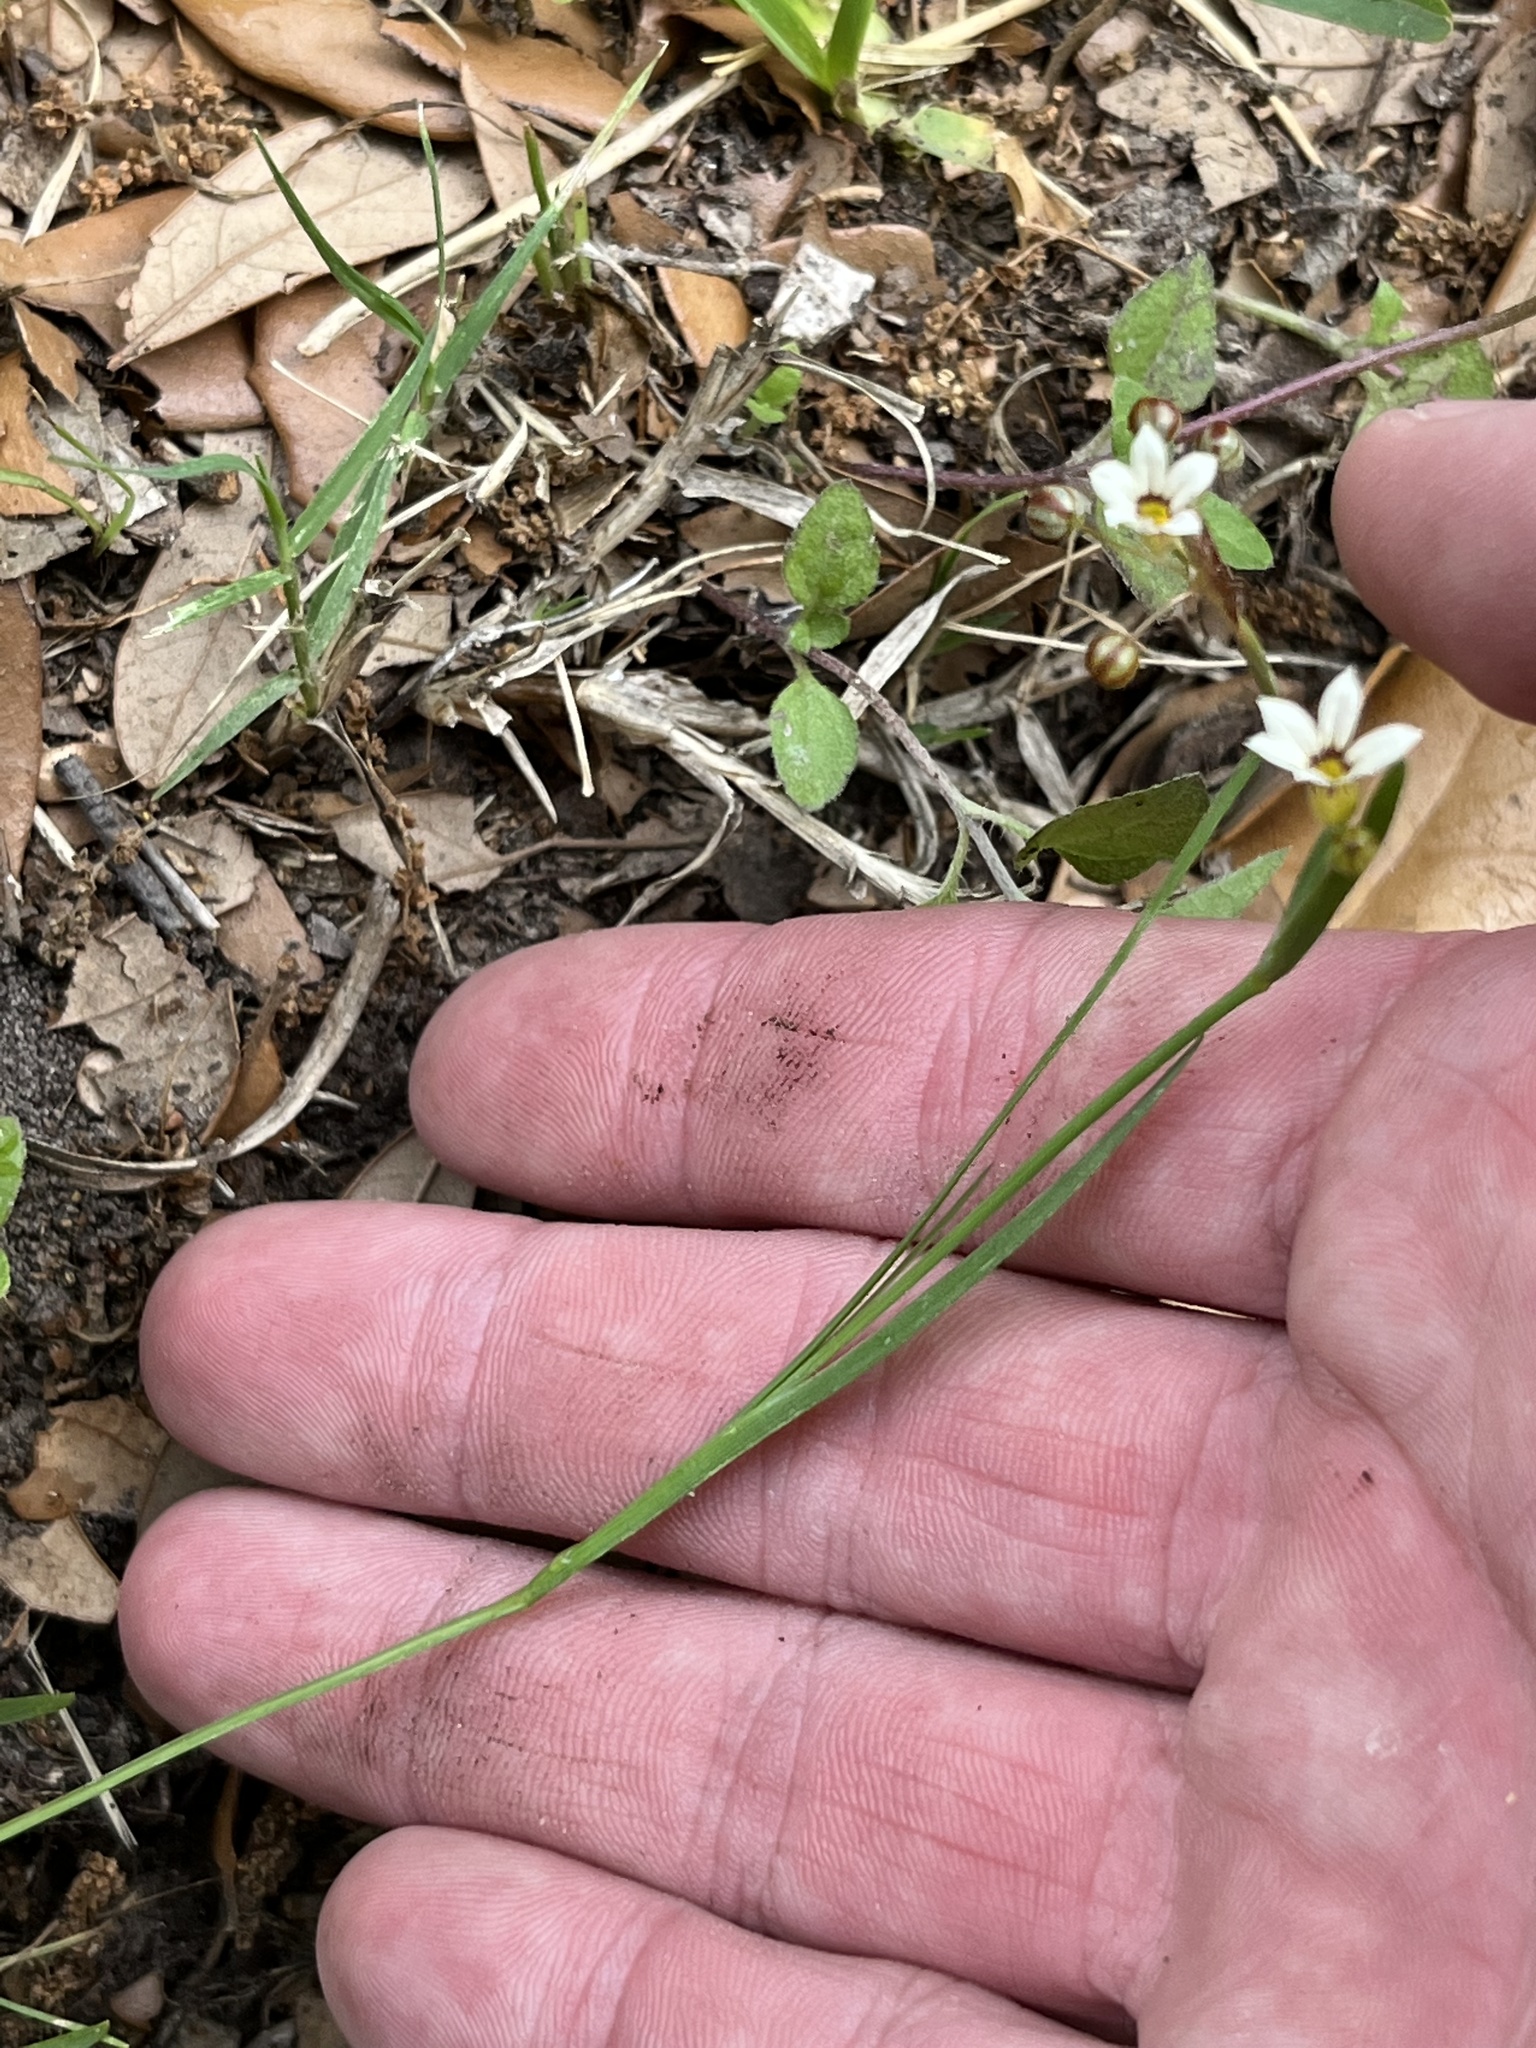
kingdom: Plantae
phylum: Tracheophyta
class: Liliopsida
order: Asparagales
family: Iridaceae
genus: Sisyrinchium
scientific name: Sisyrinchium micranthum
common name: Bermuda pigroot
